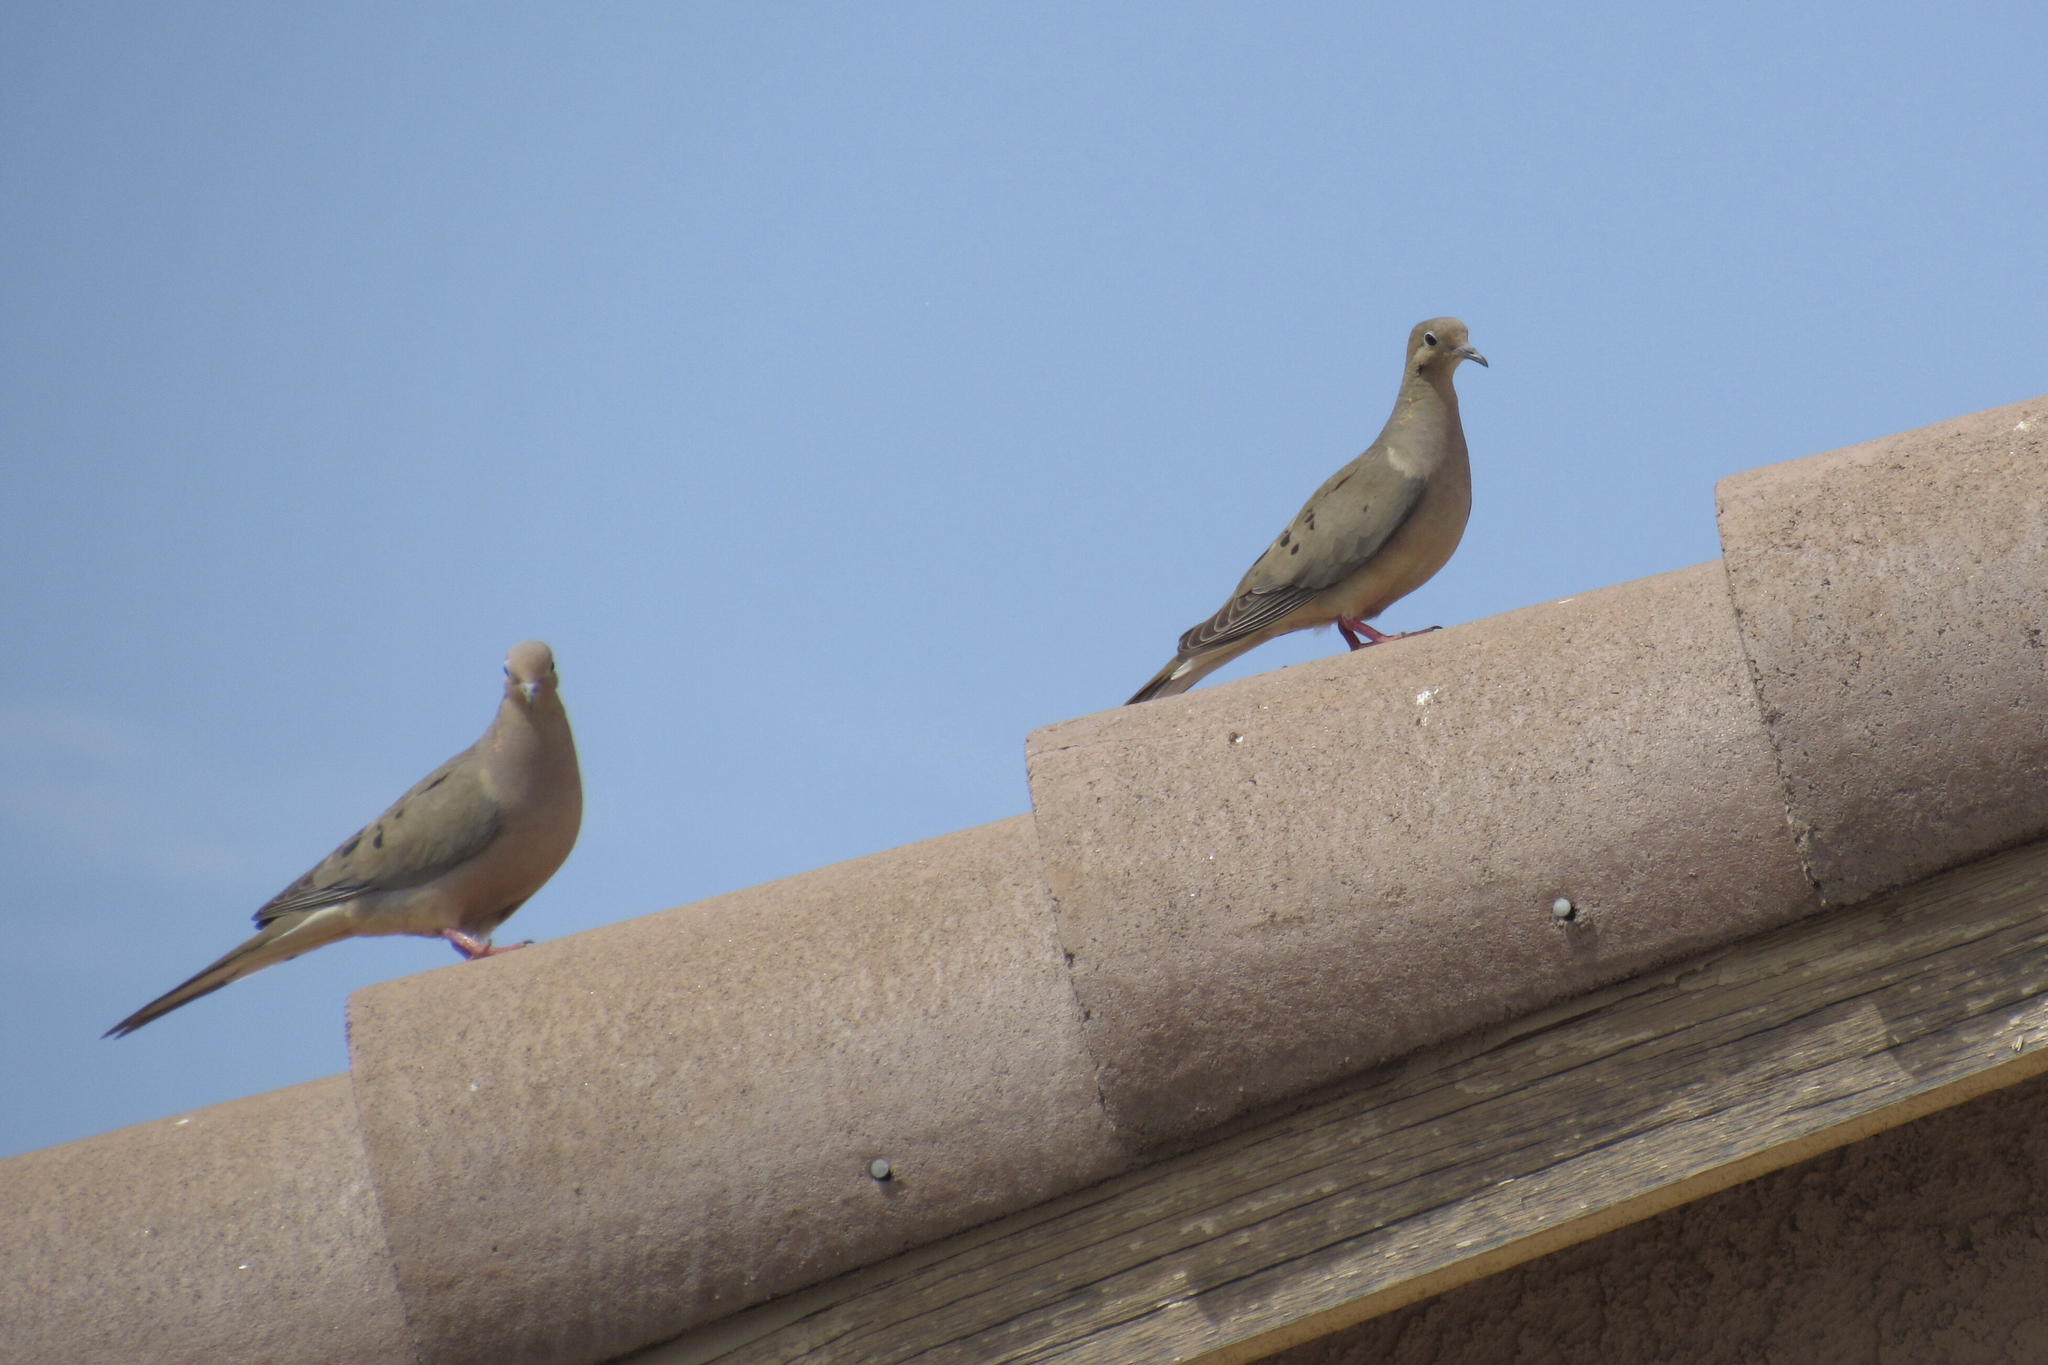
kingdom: Animalia
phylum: Chordata
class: Aves
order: Columbiformes
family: Columbidae
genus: Zenaida
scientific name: Zenaida macroura
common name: Mourning dove
